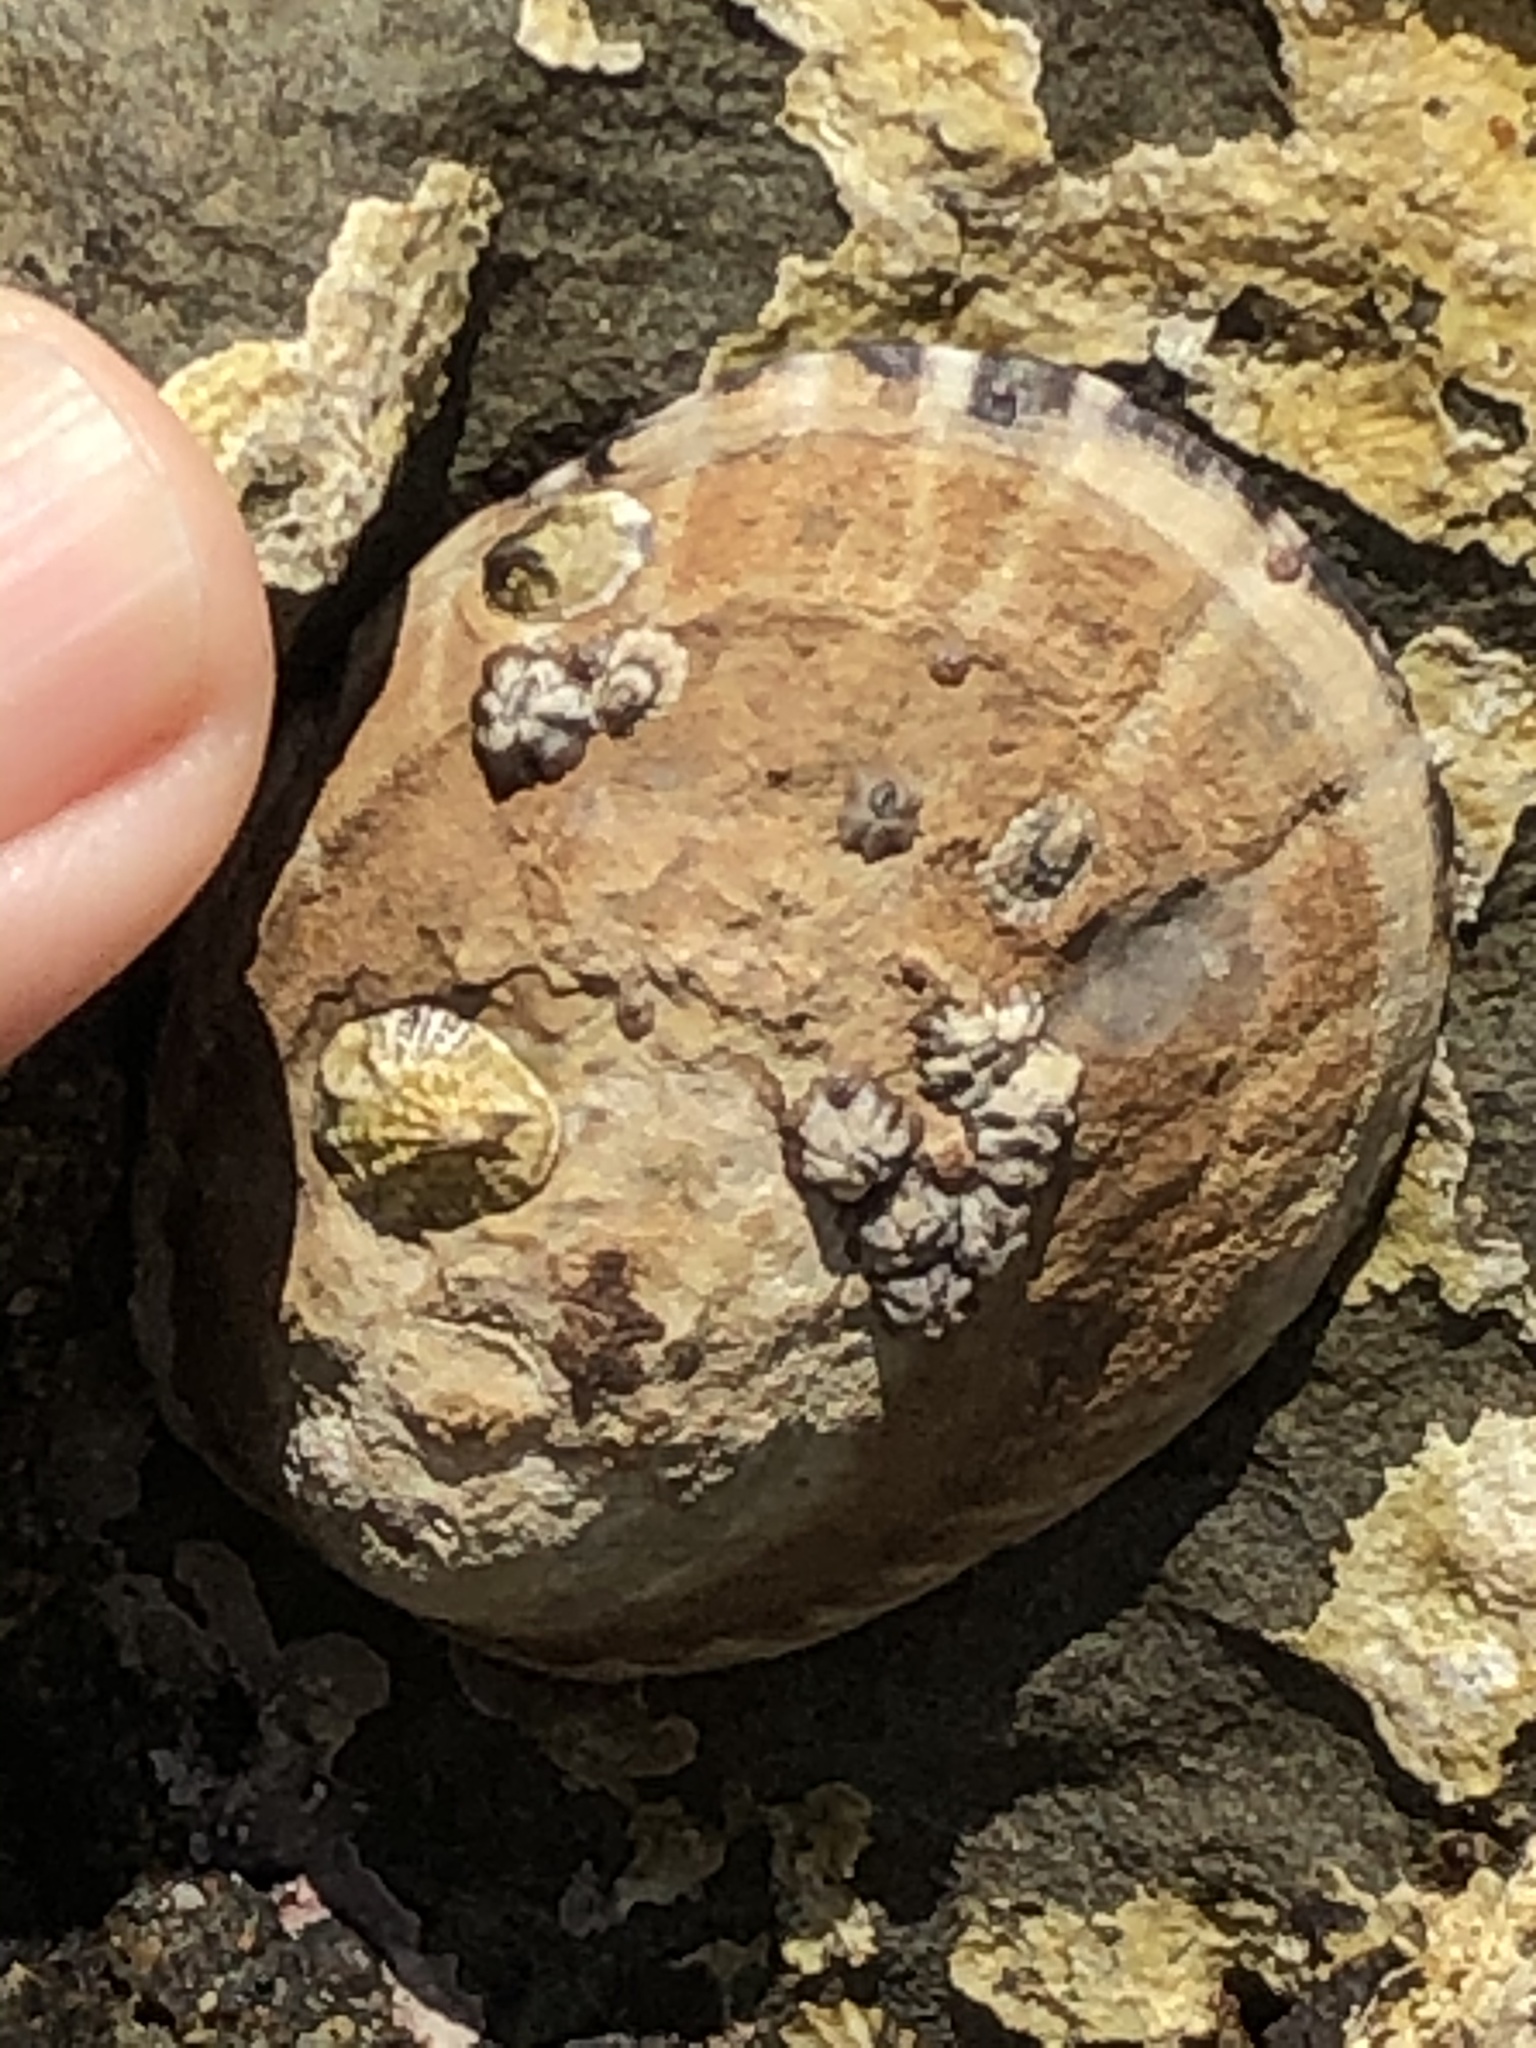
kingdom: Animalia
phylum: Mollusca
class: Gastropoda
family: Lottiidae
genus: Lottia
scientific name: Lottia gigantea
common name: Owl limpet
